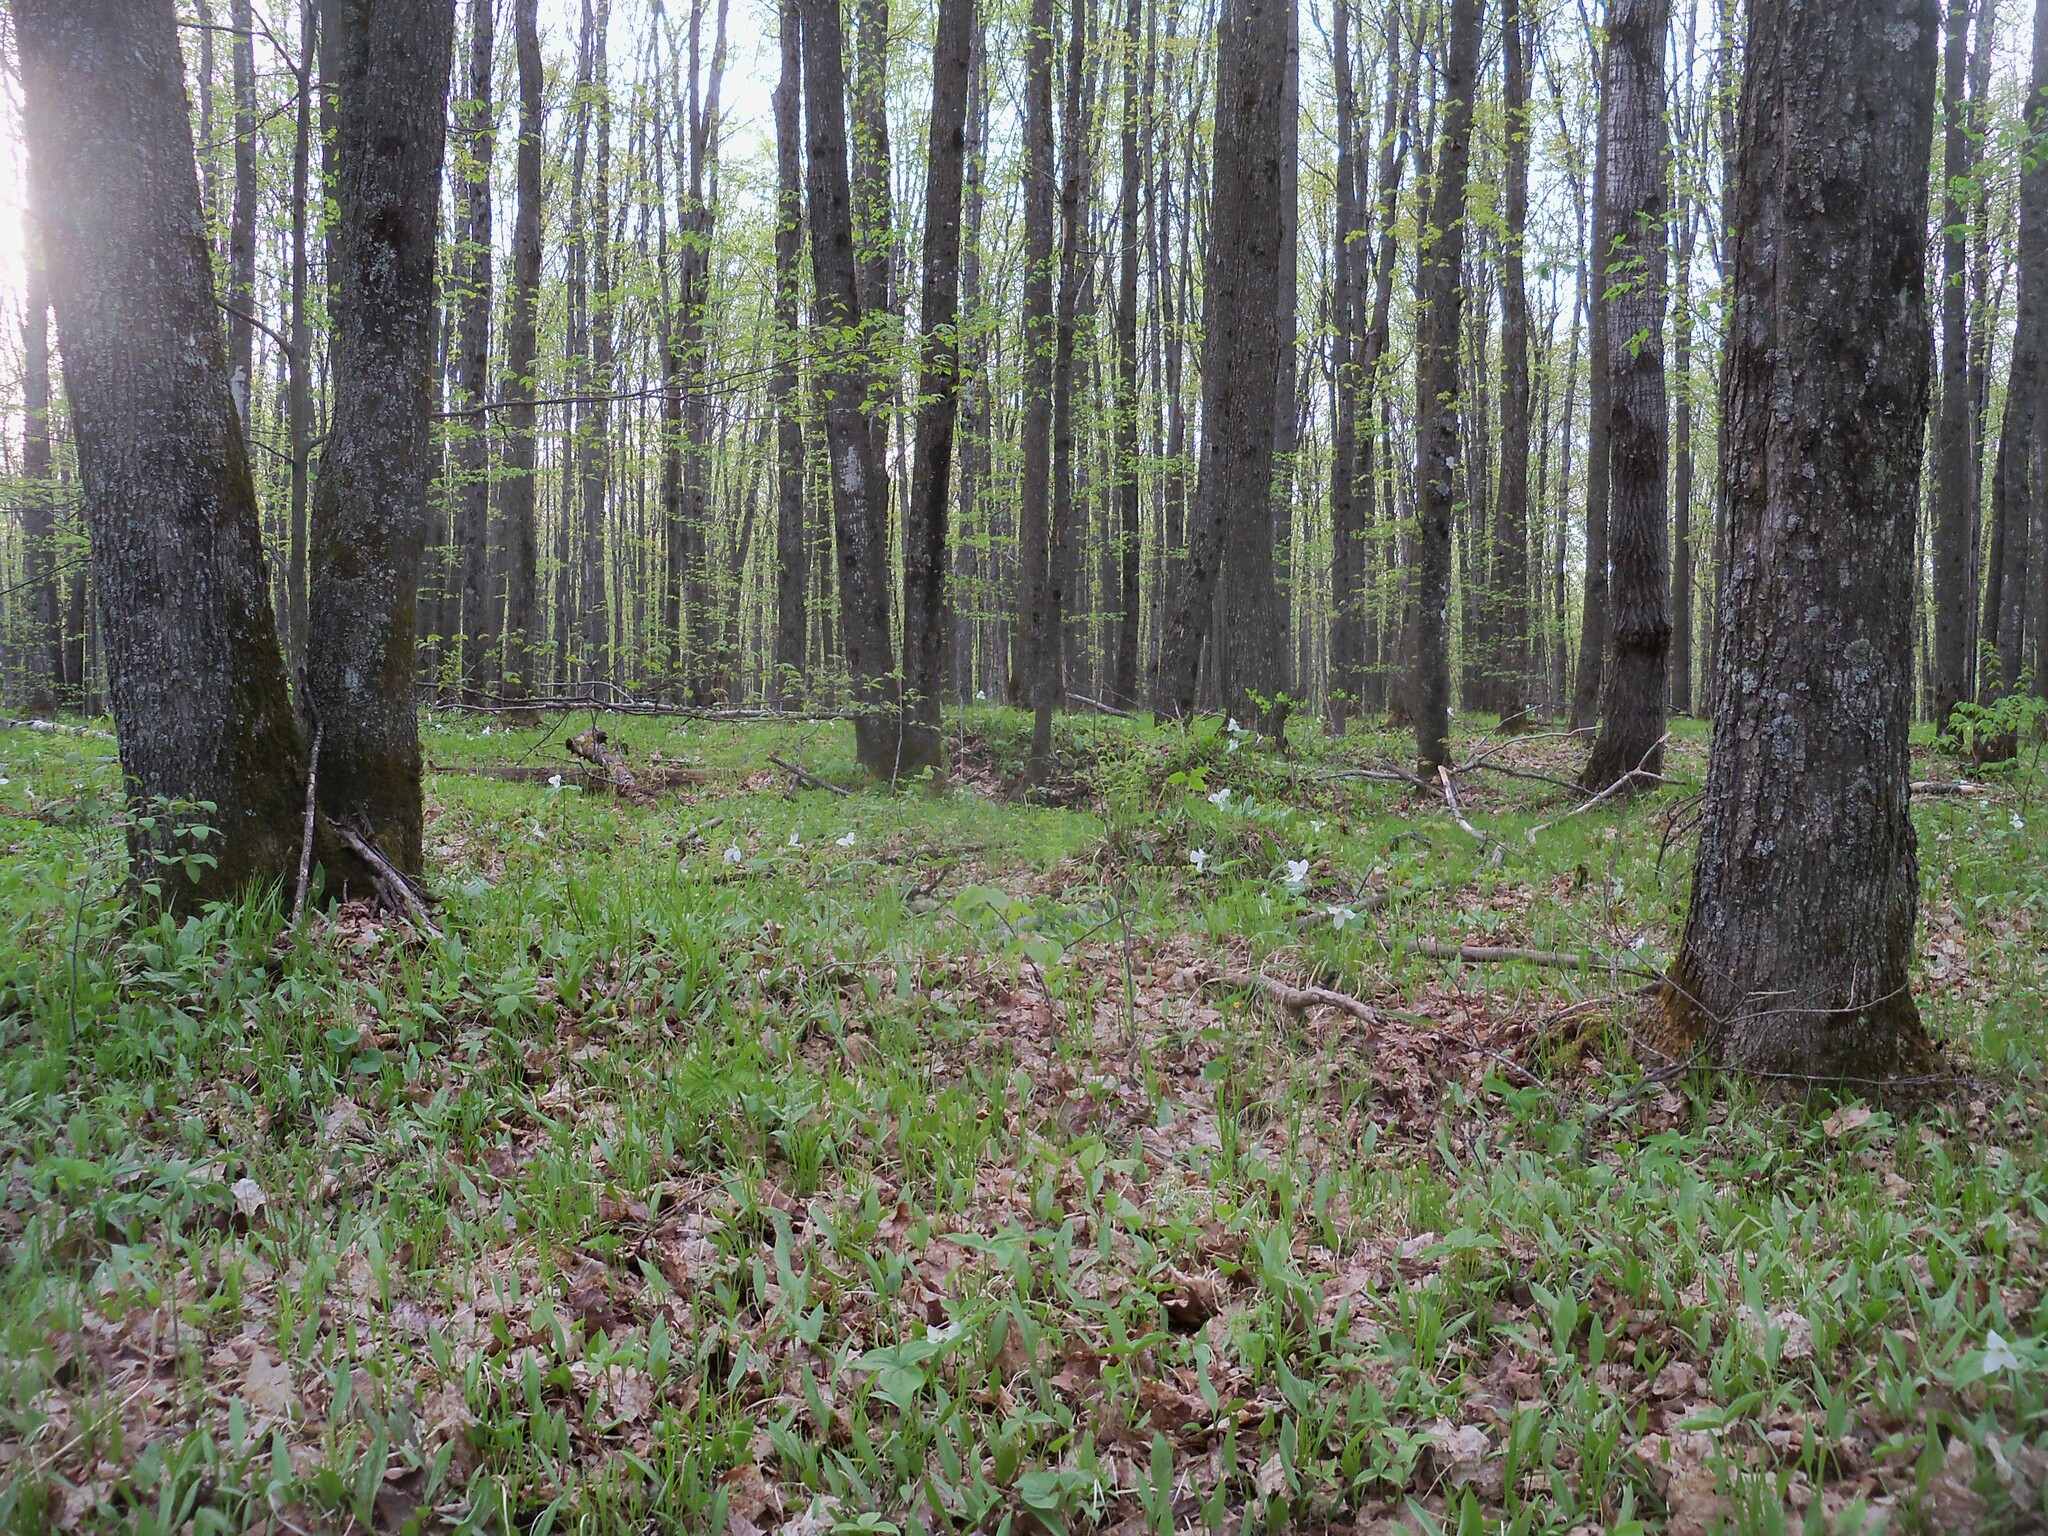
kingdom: Plantae
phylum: Tracheophyta
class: Liliopsida
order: Liliales
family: Melanthiaceae
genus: Trillium
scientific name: Trillium grandiflorum
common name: Great white trillium
